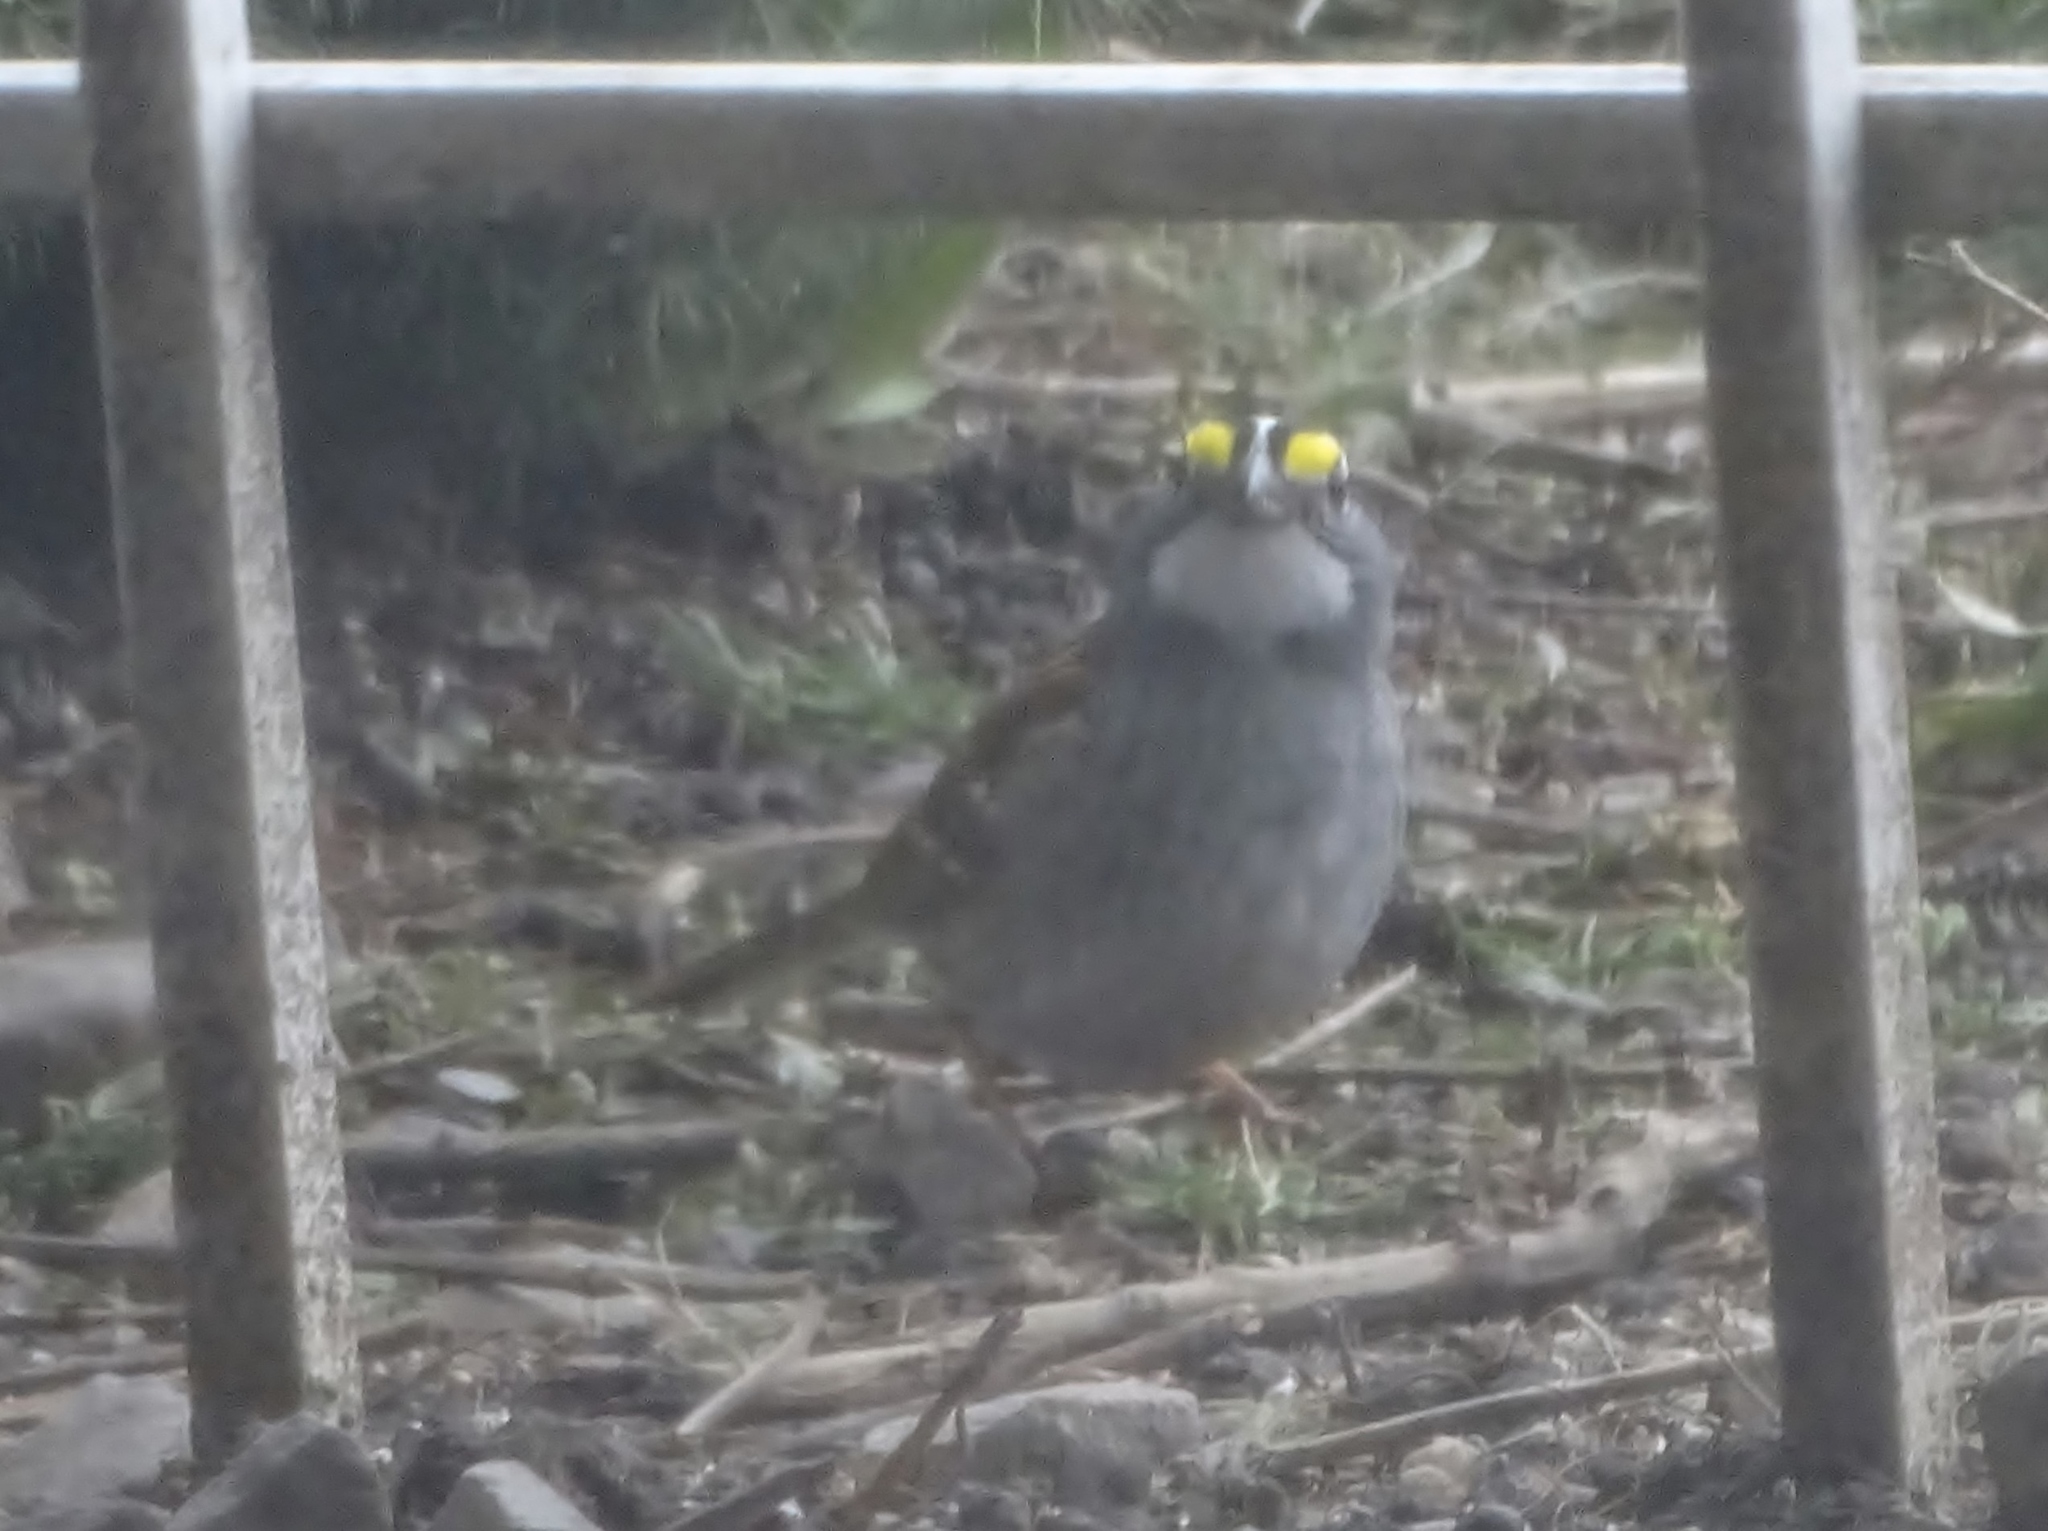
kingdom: Animalia
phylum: Chordata
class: Aves
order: Passeriformes
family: Passerellidae
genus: Zonotrichia
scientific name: Zonotrichia albicollis
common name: White-throated sparrow
